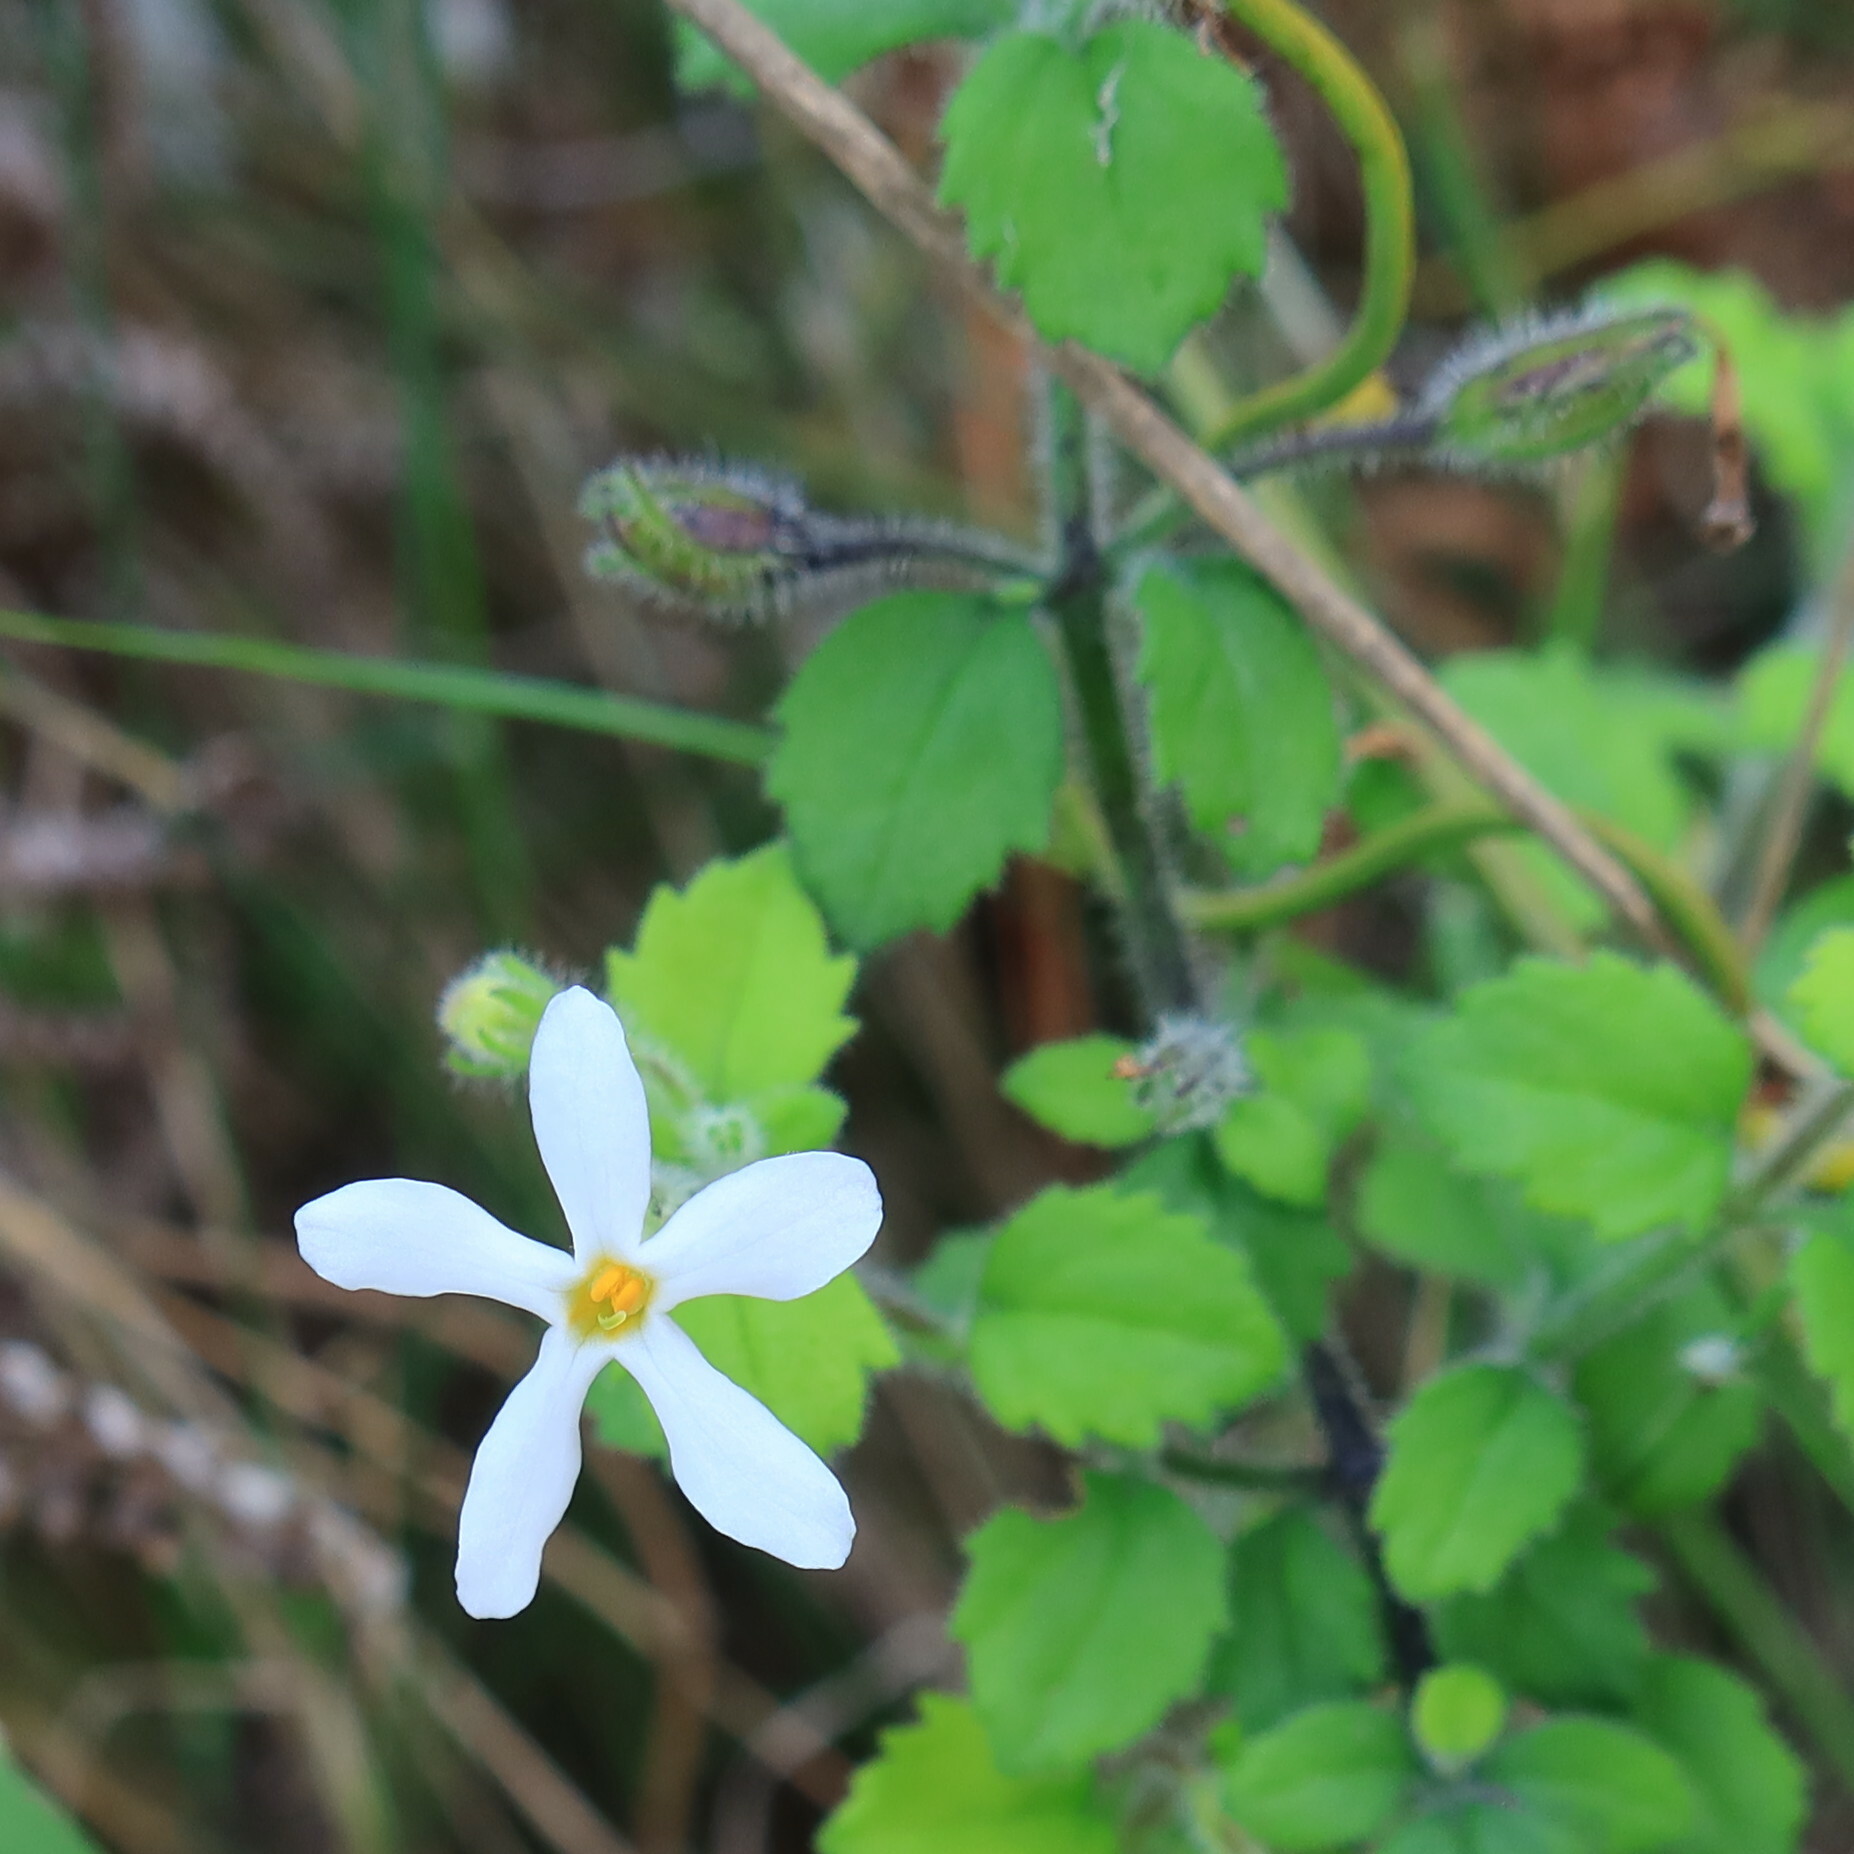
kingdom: Plantae
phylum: Tracheophyta
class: Magnoliopsida
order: Lamiales
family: Scrophulariaceae
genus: Chaenostoma
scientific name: Chaenostoma hispidum
